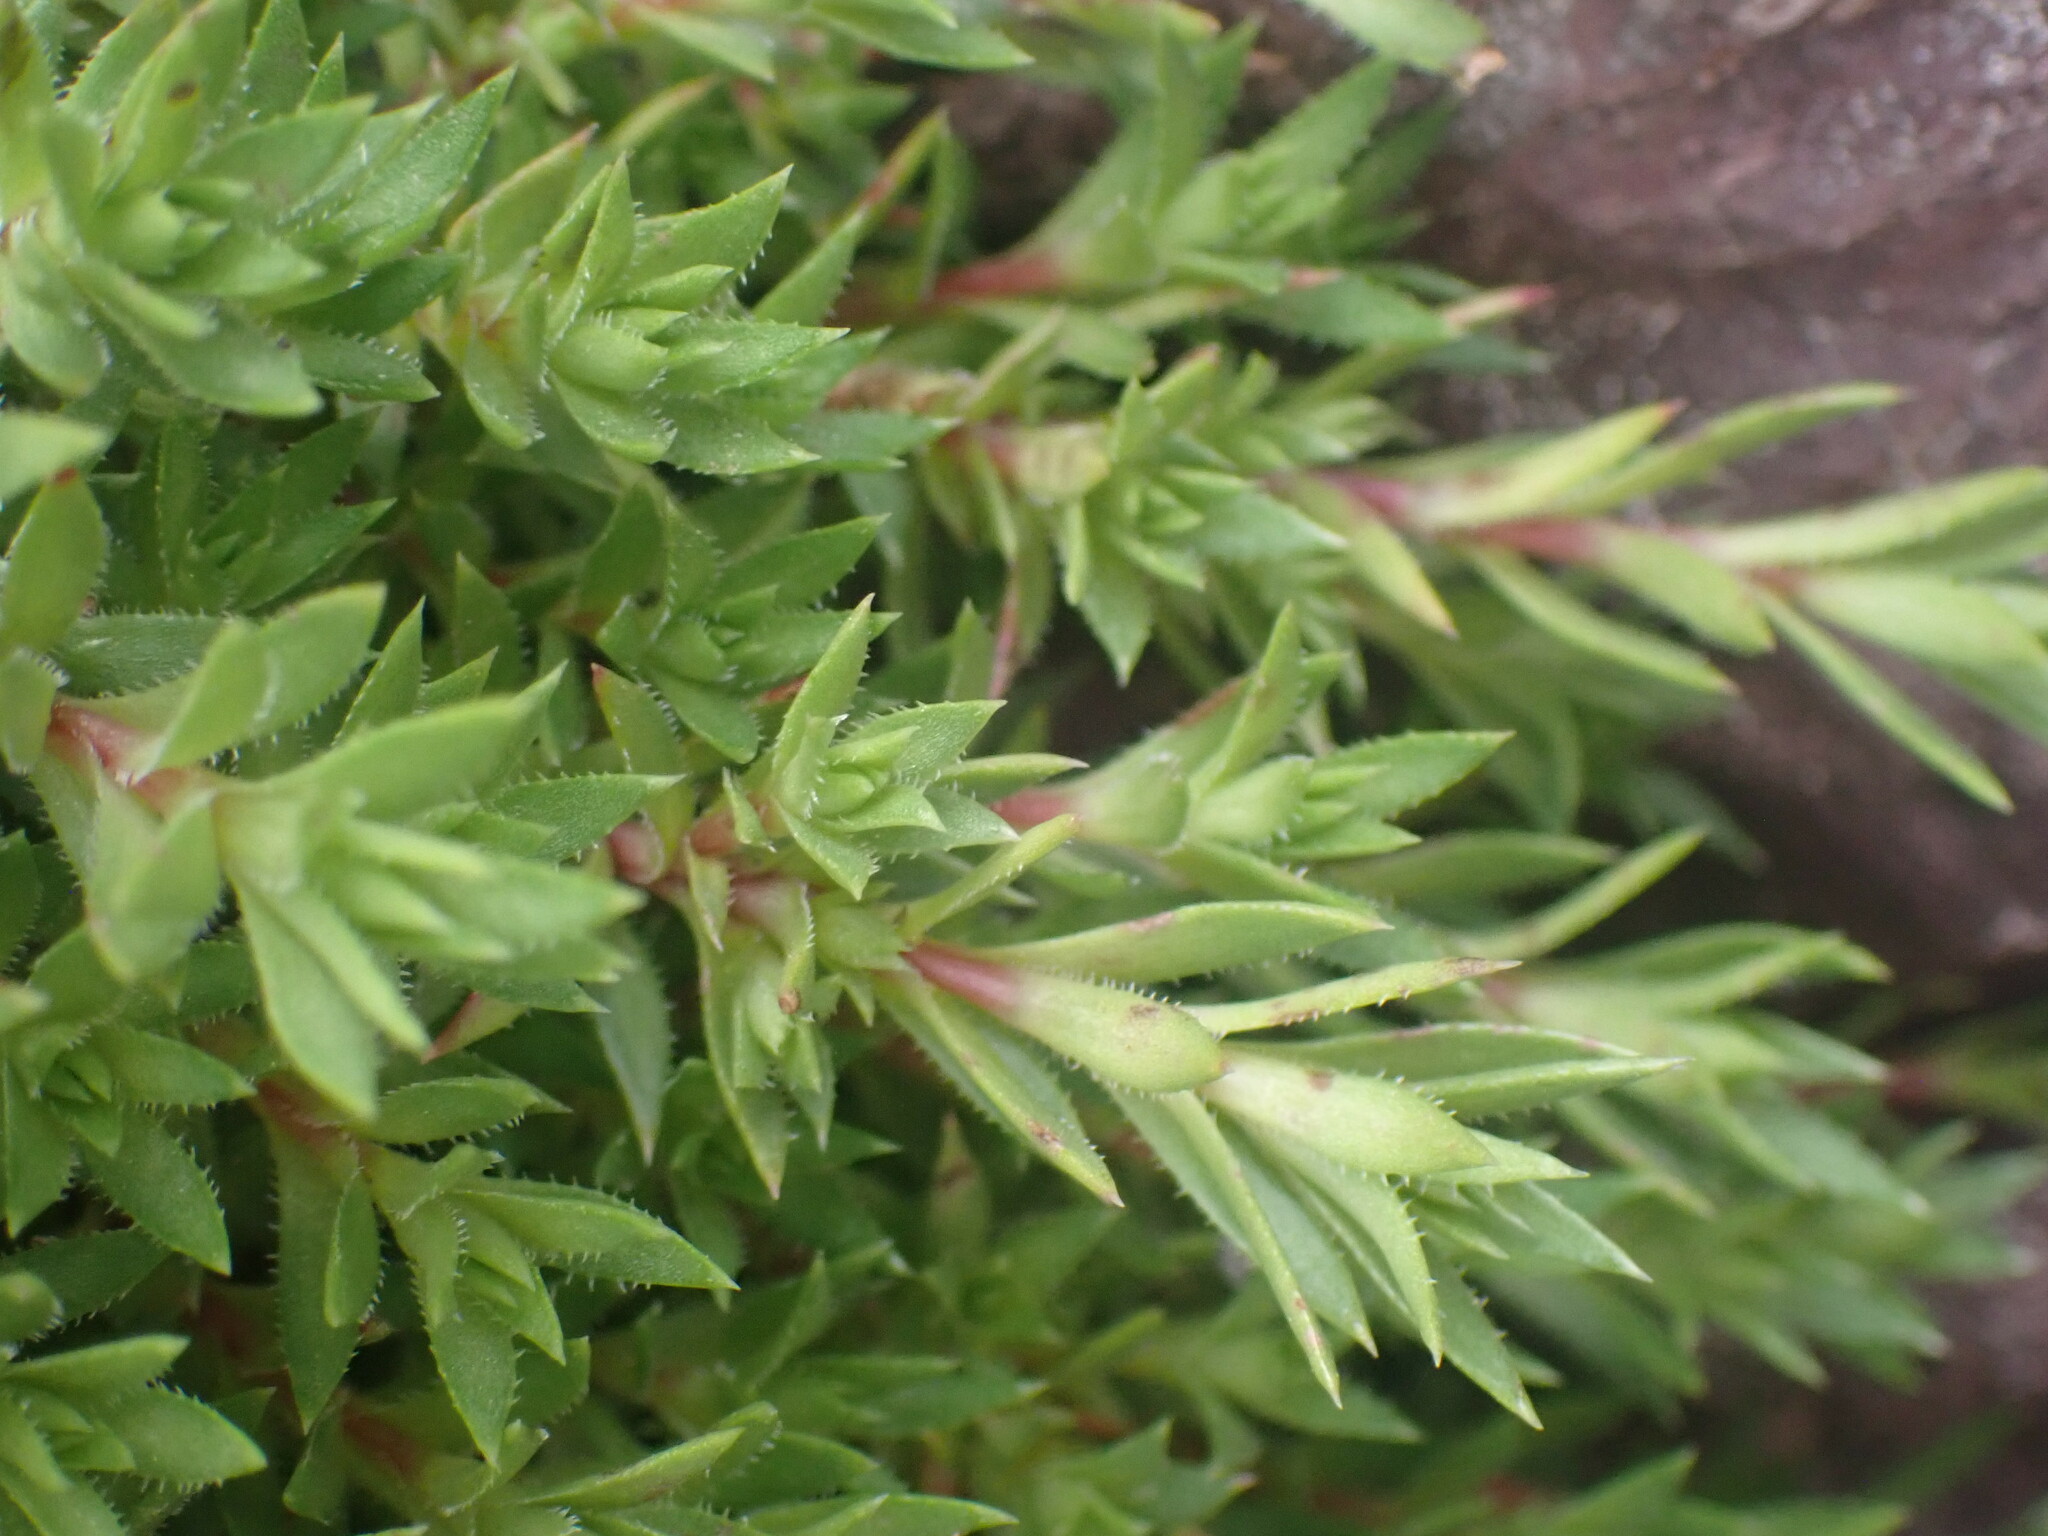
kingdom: Plantae
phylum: Tracheophyta
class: Magnoliopsida
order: Saxifragales
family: Saxifragaceae
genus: Saxifraga
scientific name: Saxifraga bronchialis
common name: Matted saxifrage
